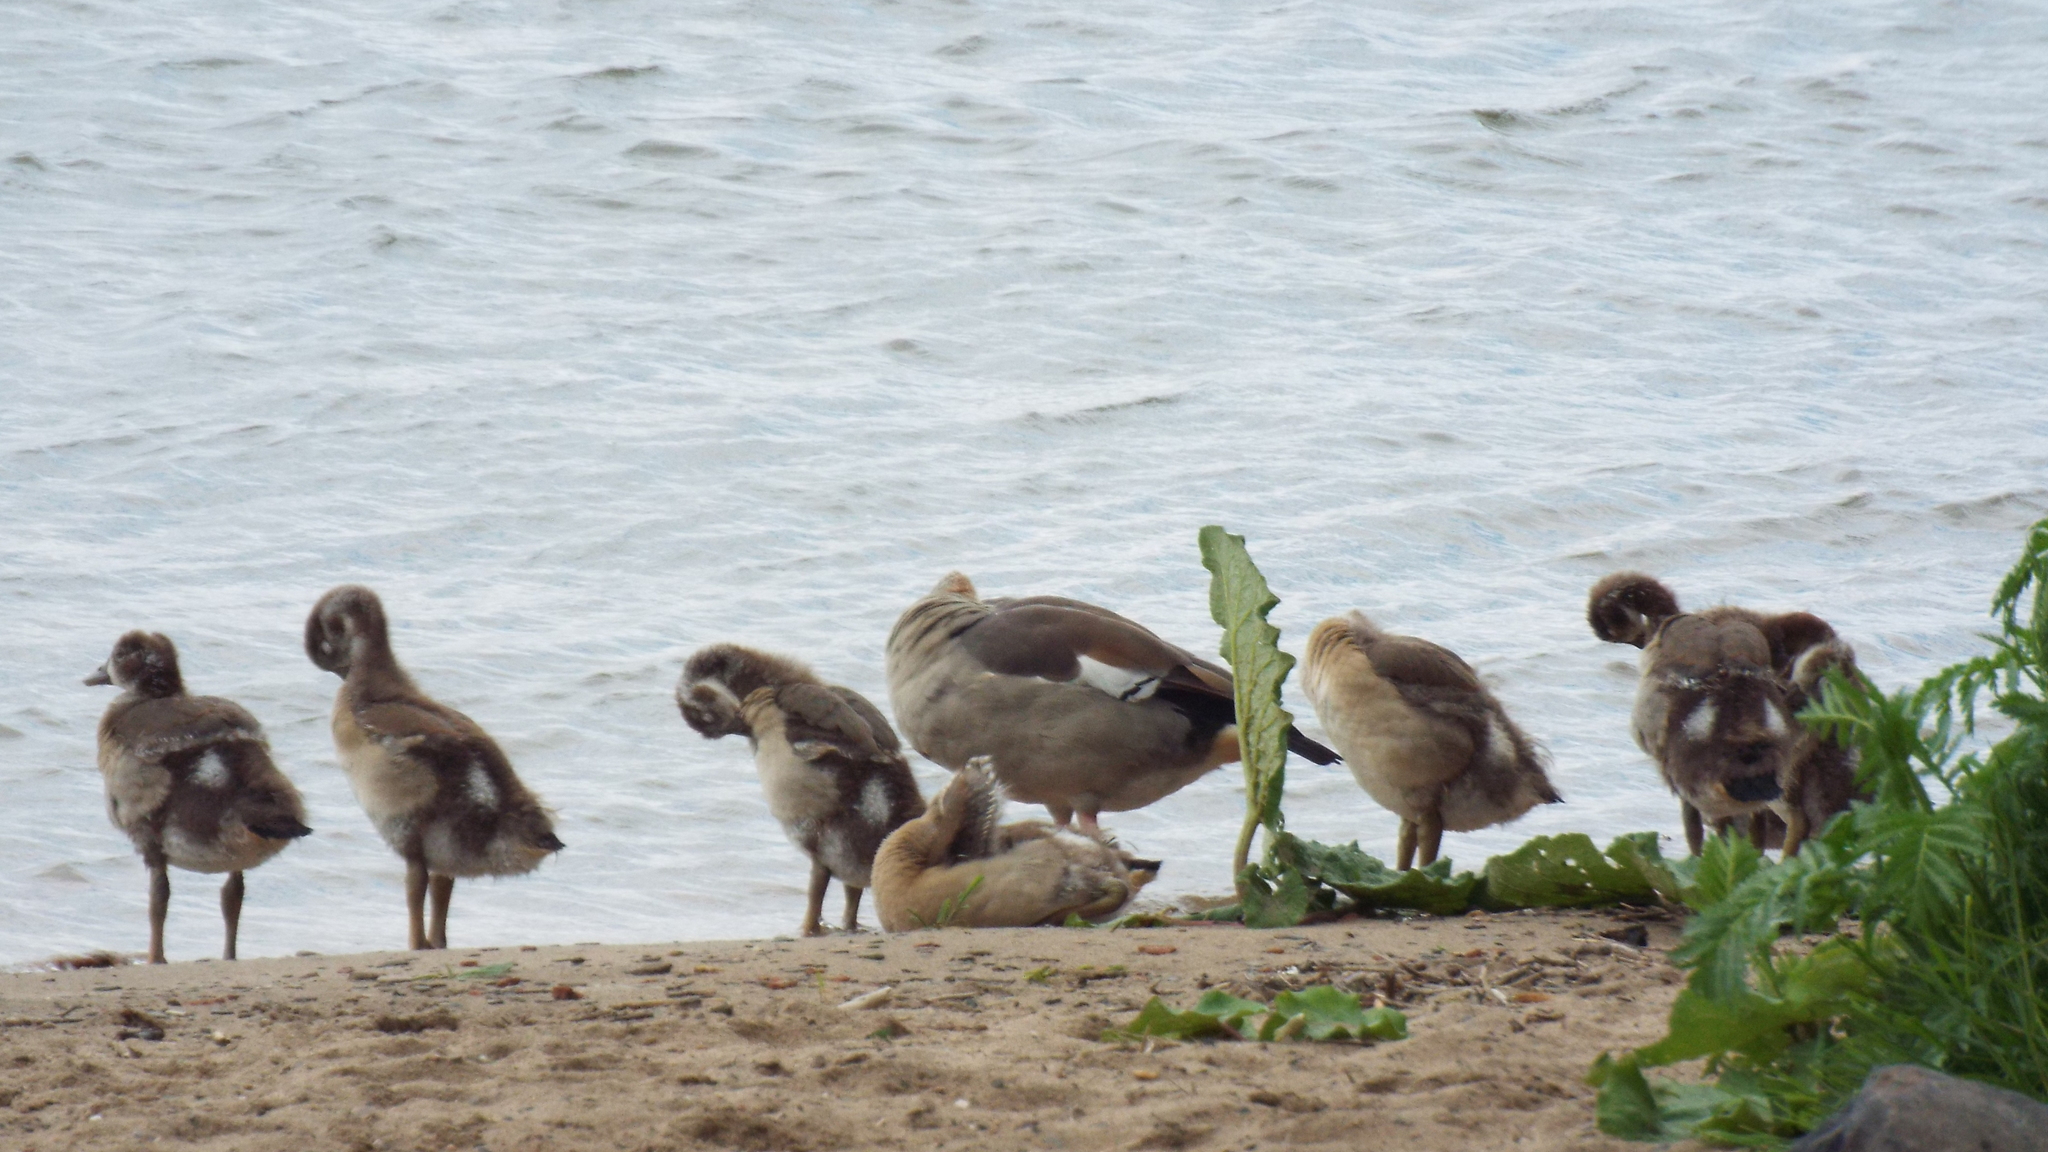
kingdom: Animalia
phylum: Chordata
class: Aves
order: Anseriformes
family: Anatidae
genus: Alopochen
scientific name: Alopochen aegyptiaca
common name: Egyptian goose
